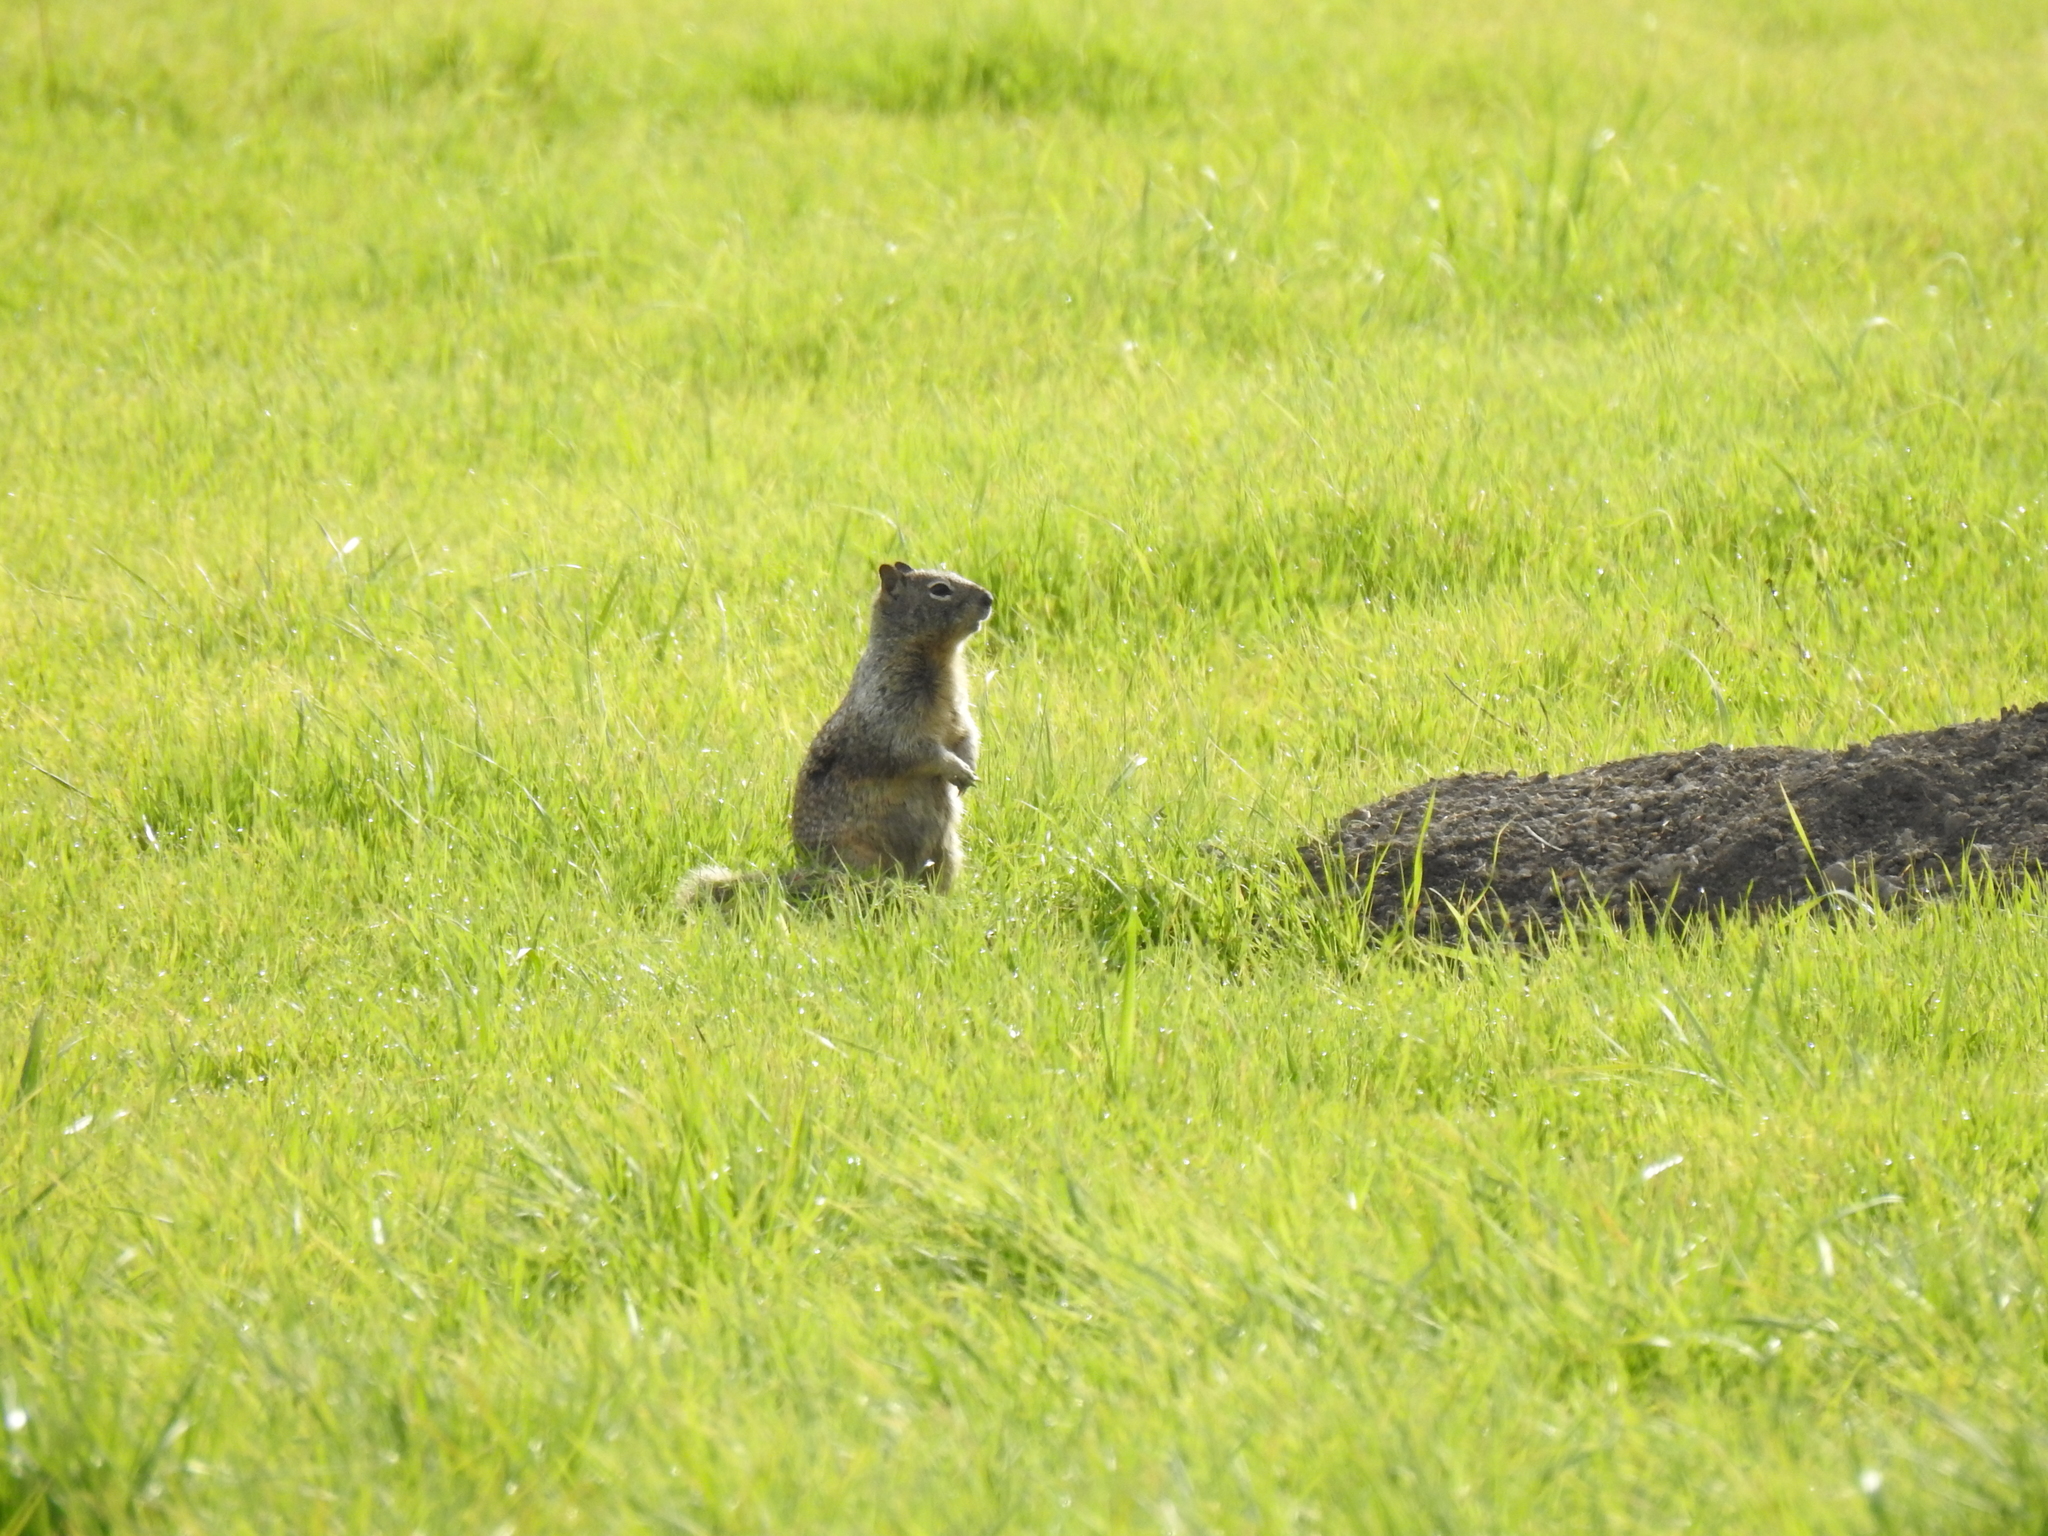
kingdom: Animalia
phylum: Chordata
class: Mammalia
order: Rodentia
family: Sciuridae
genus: Otospermophilus
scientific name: Otospermophilus beecheyi
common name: California ground squirrel
